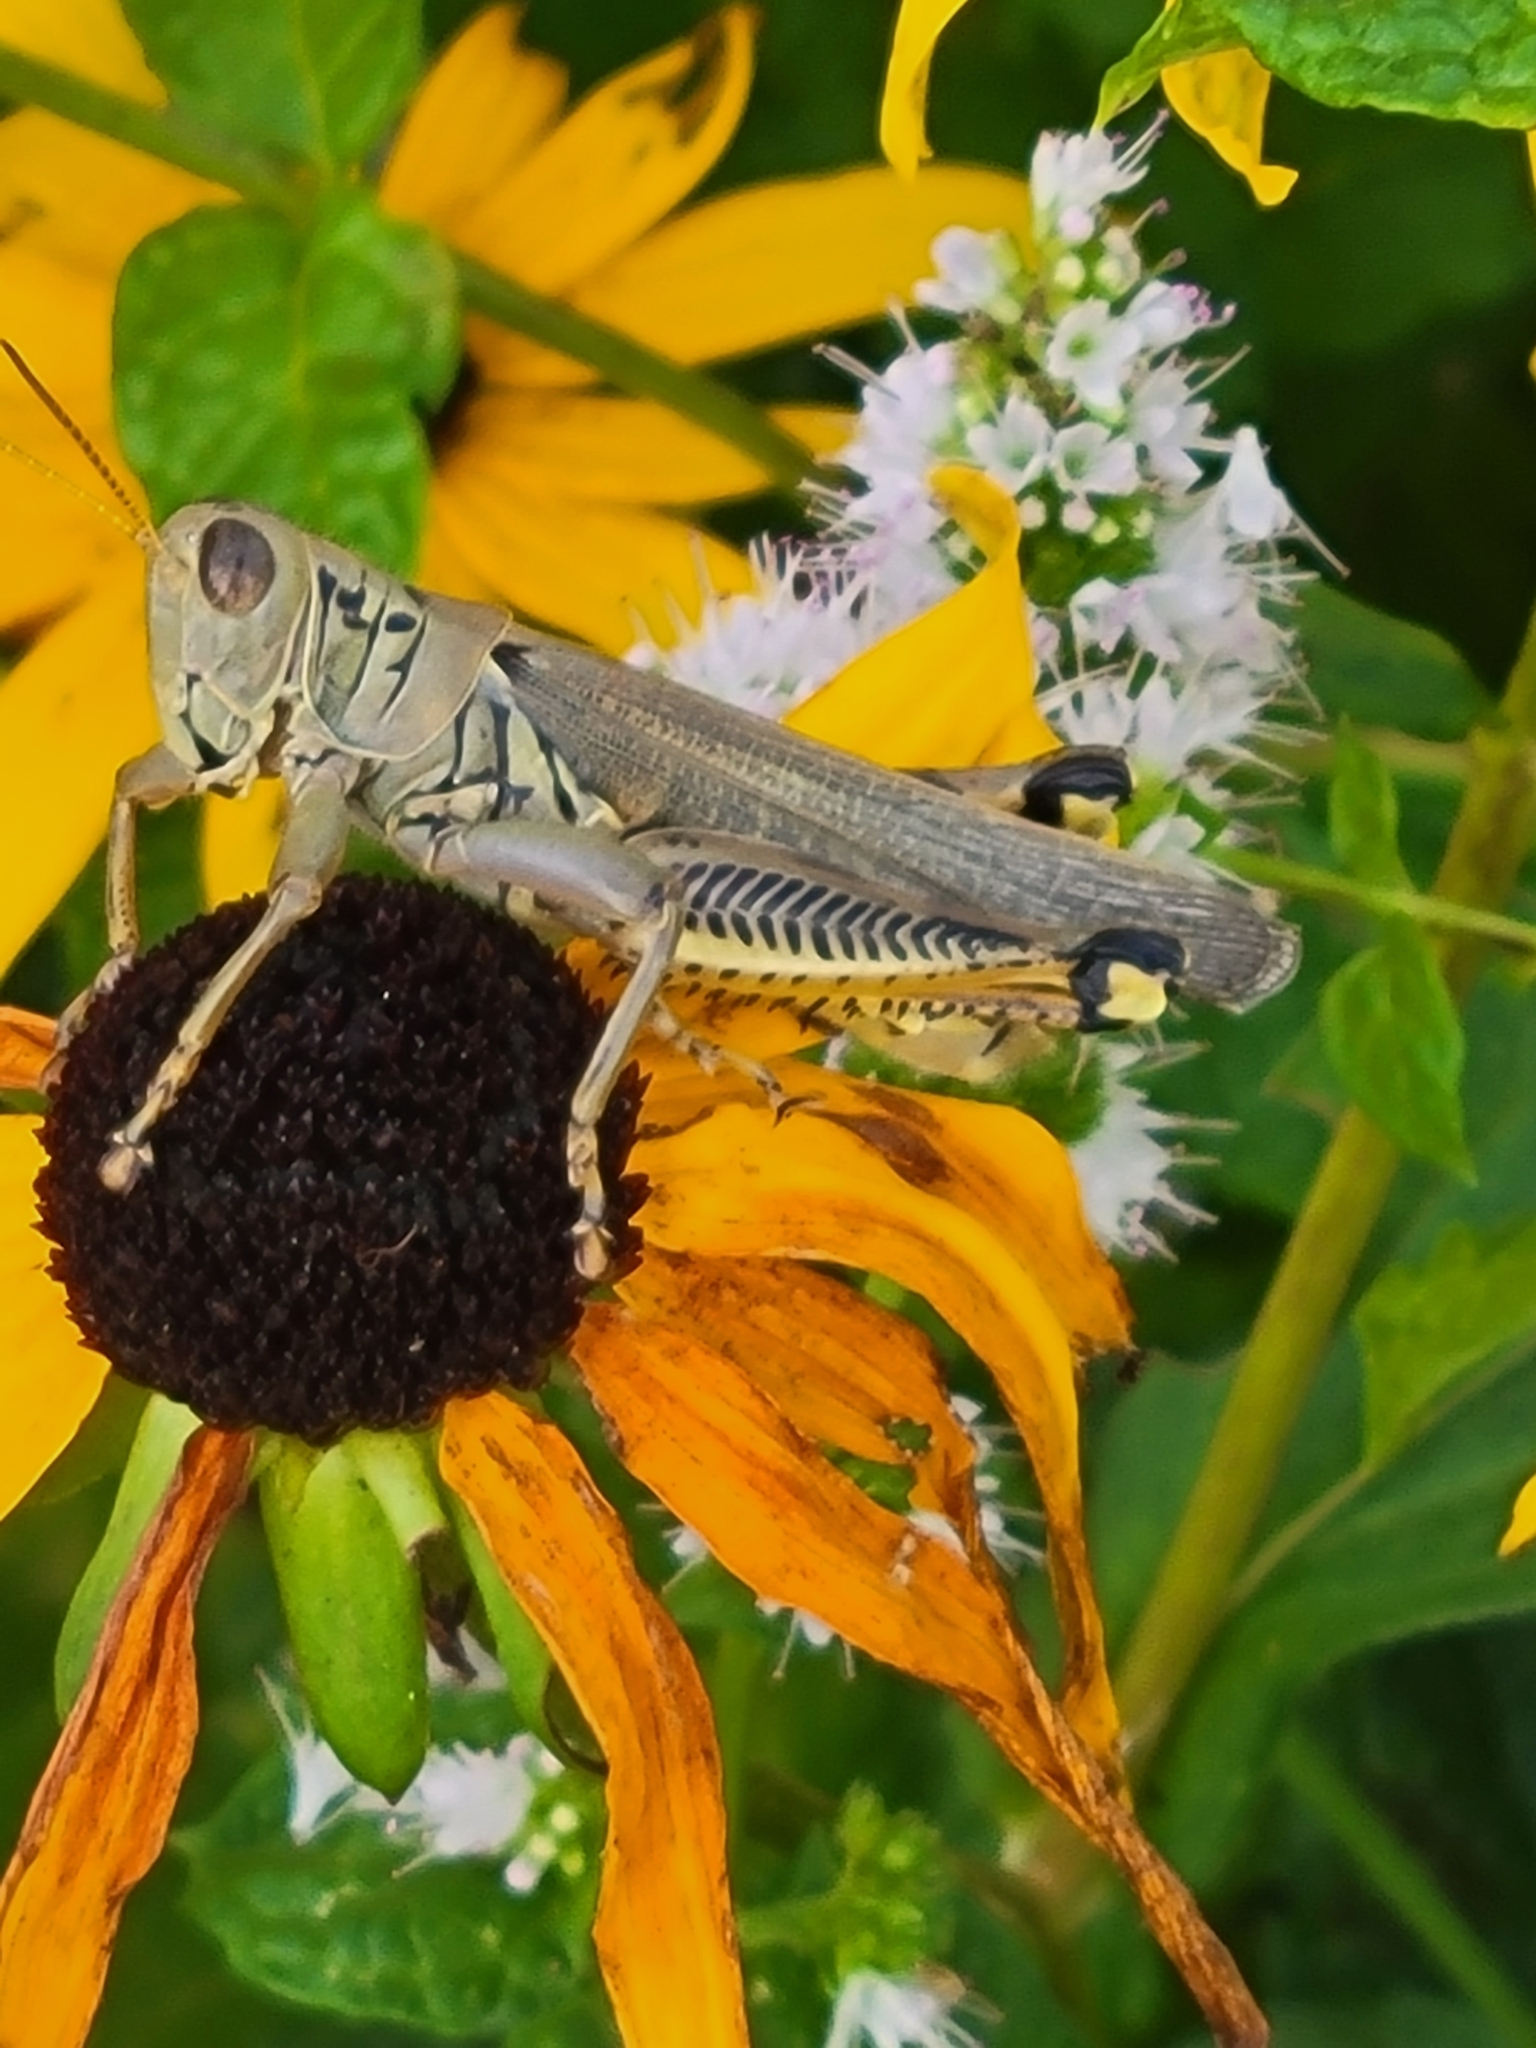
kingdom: Animalia
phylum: Arthropoda
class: Insecta
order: Orthoptera
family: Acrididae
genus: Melanoplus
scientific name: Melanoplus differentialis
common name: Differential grasshopper
